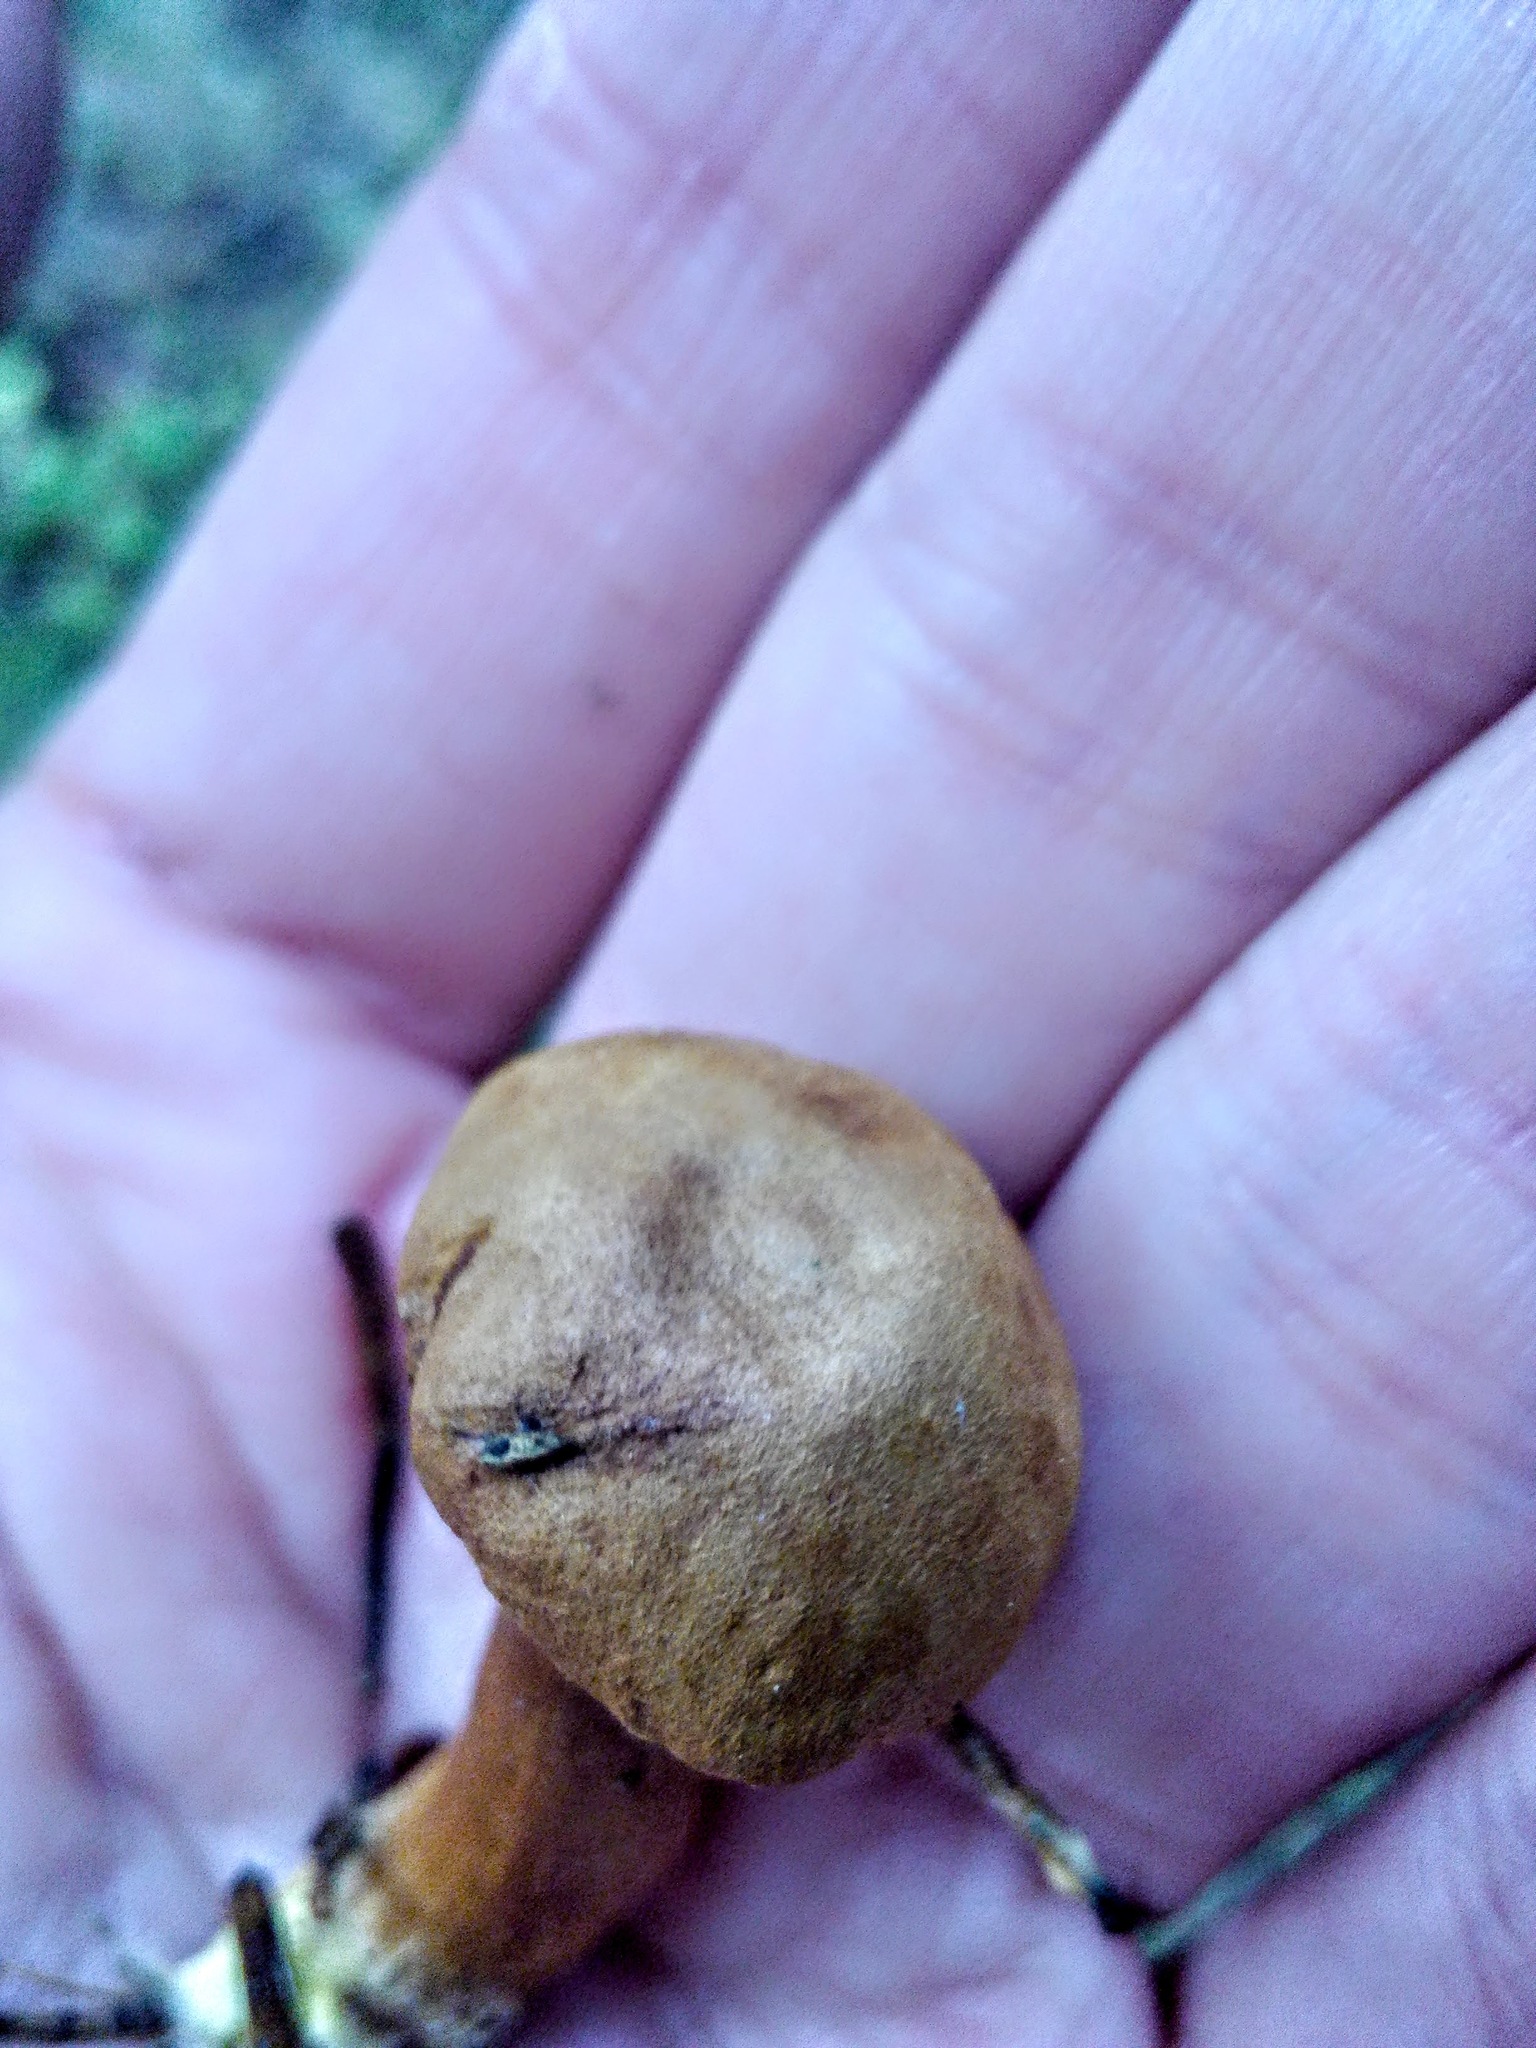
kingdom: Fungi
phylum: Basidiomycota
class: Agaricomycetes
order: Boletales
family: Boletaceae
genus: Chalciporus
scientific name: Chalciporus piperatus
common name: Peppery bolete
